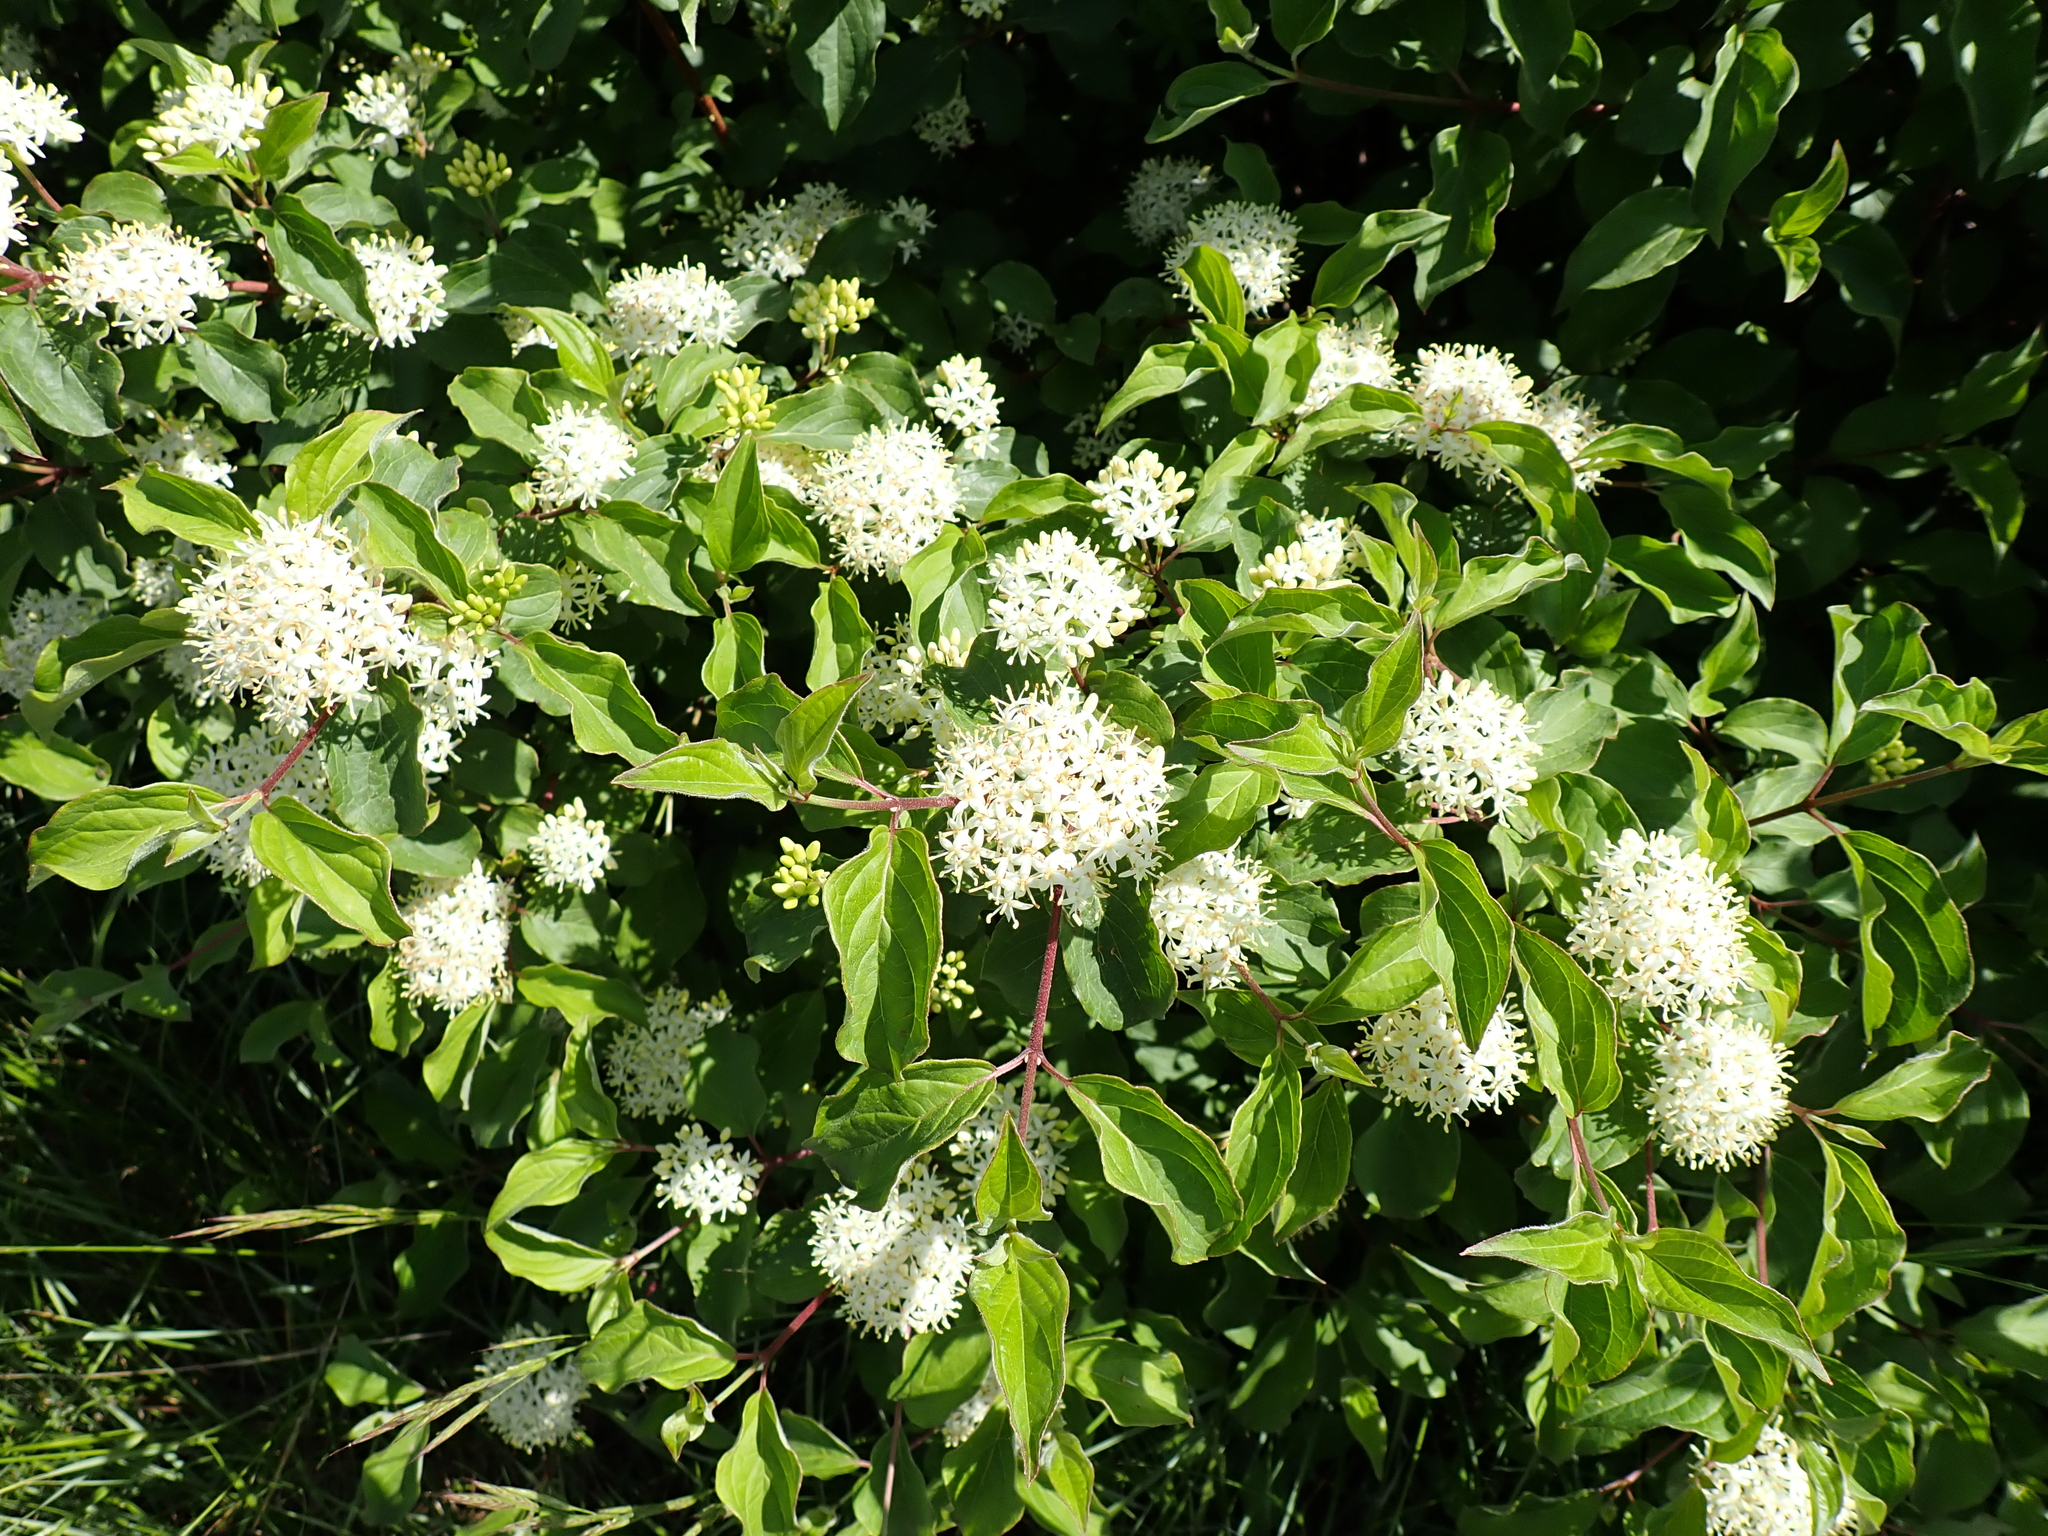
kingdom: Plantae
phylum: Tracheophyta
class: Magnoliopsida
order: Cornales
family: Cornaceae
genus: Cornus
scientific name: Cornus sanguinea
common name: Dogwood
